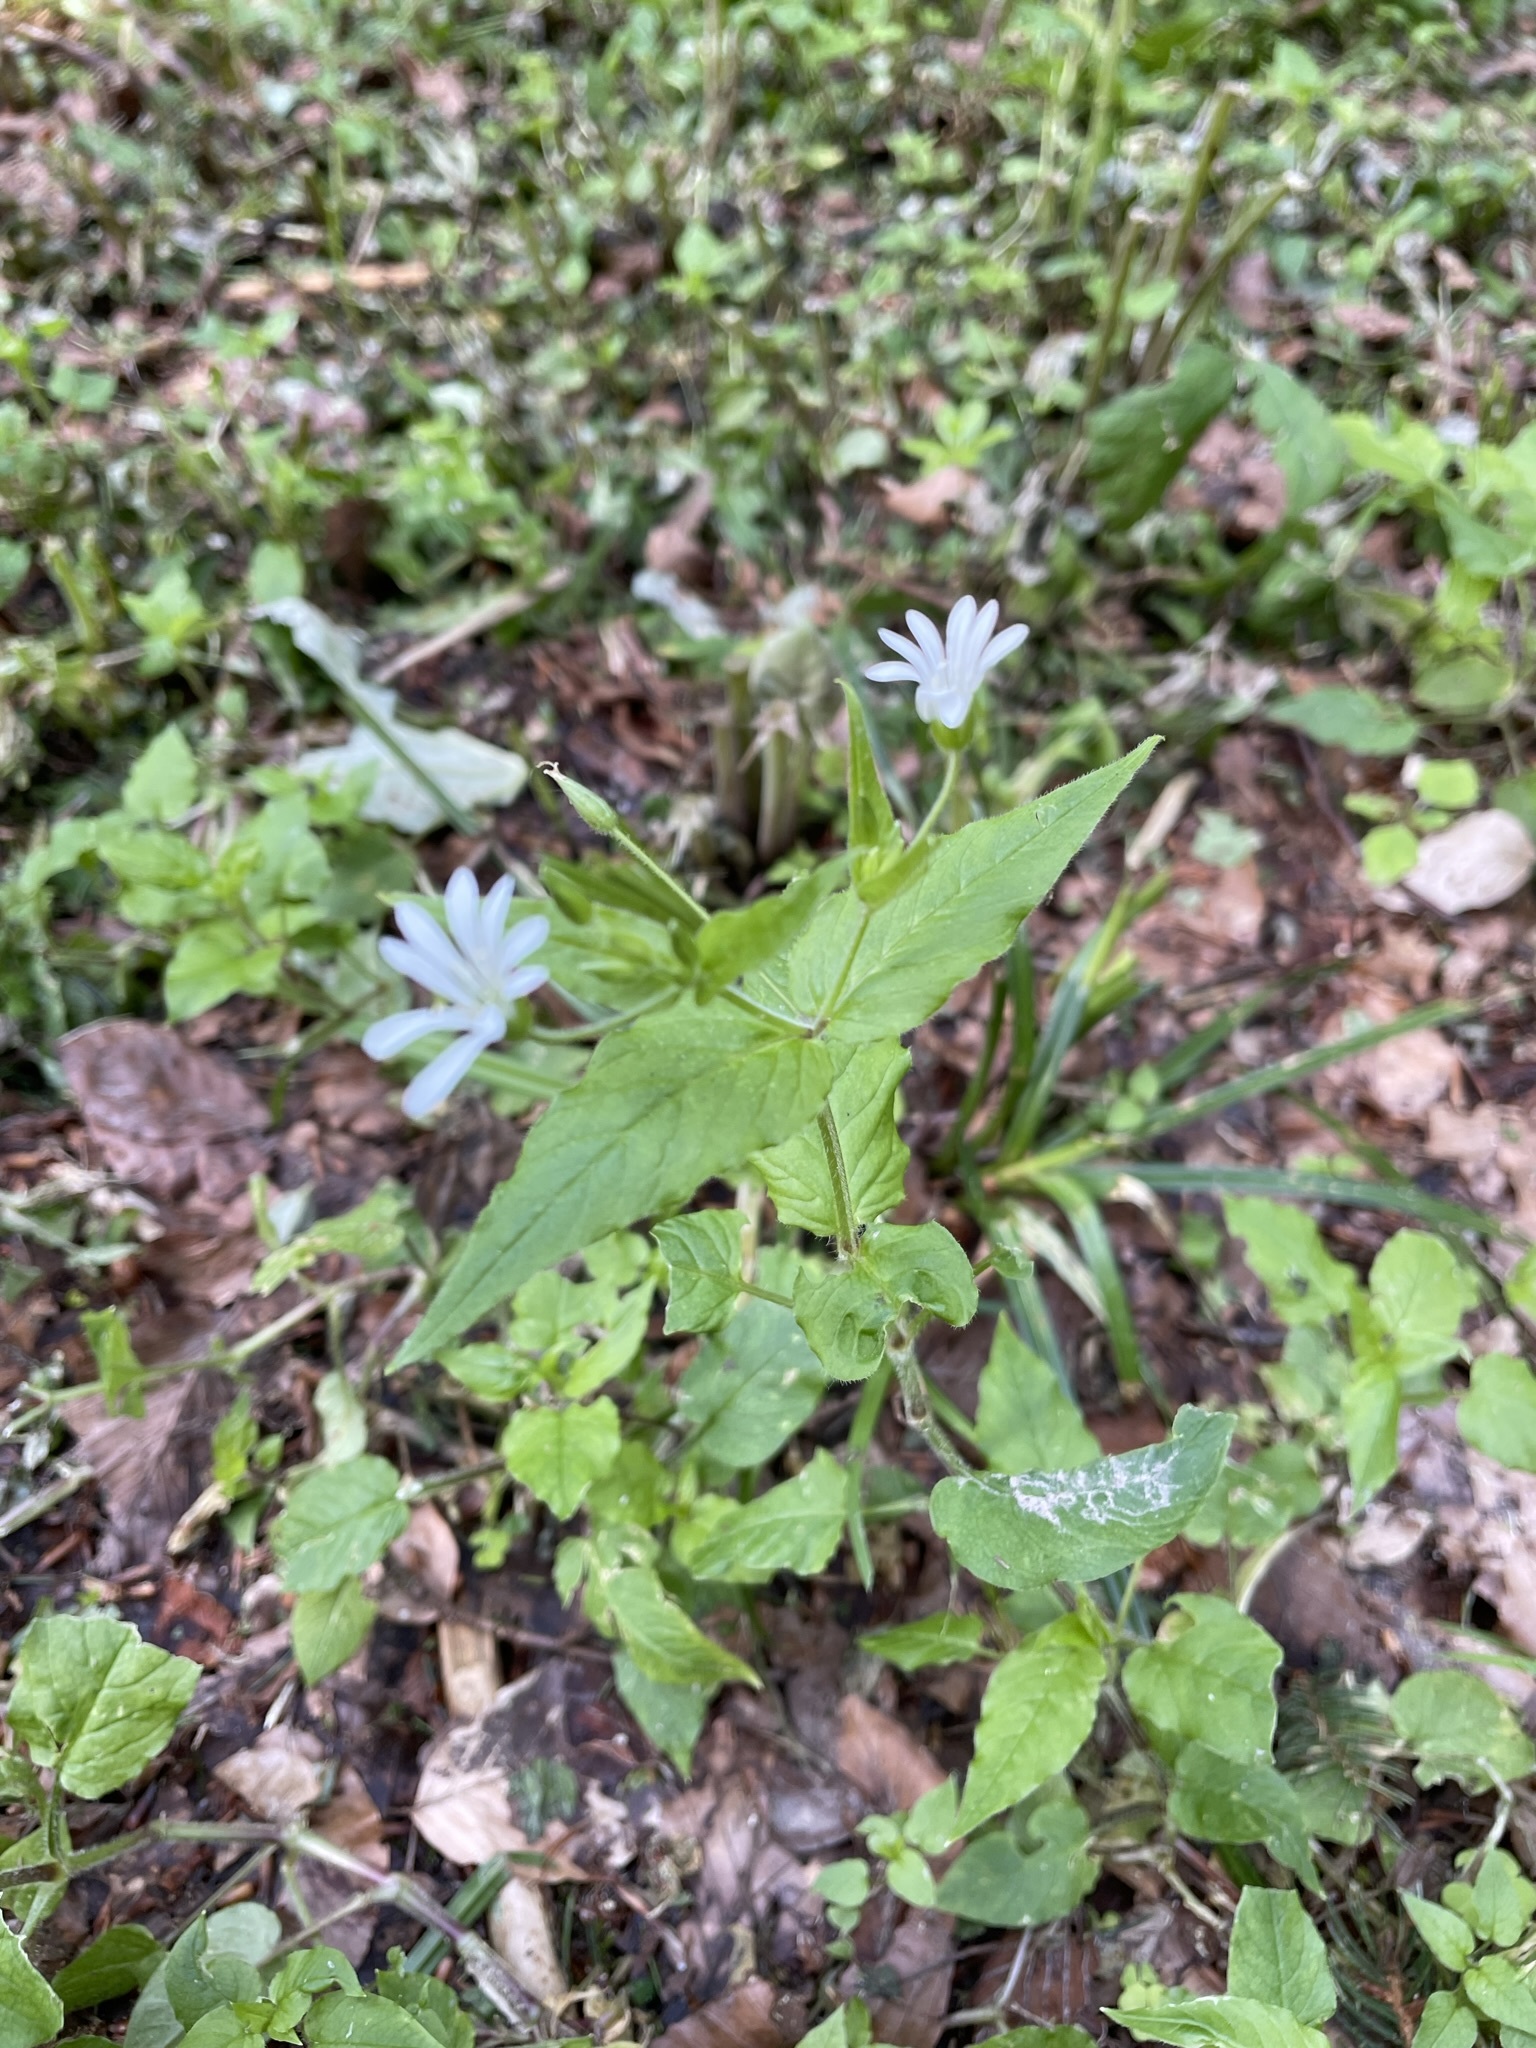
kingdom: Plantae
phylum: Tracheophyta
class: Magnoliopsida
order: Caryophyllales
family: Caryophyllaceae
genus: Stellaria
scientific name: Stellaria nemorum
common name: Wood stitchwort
